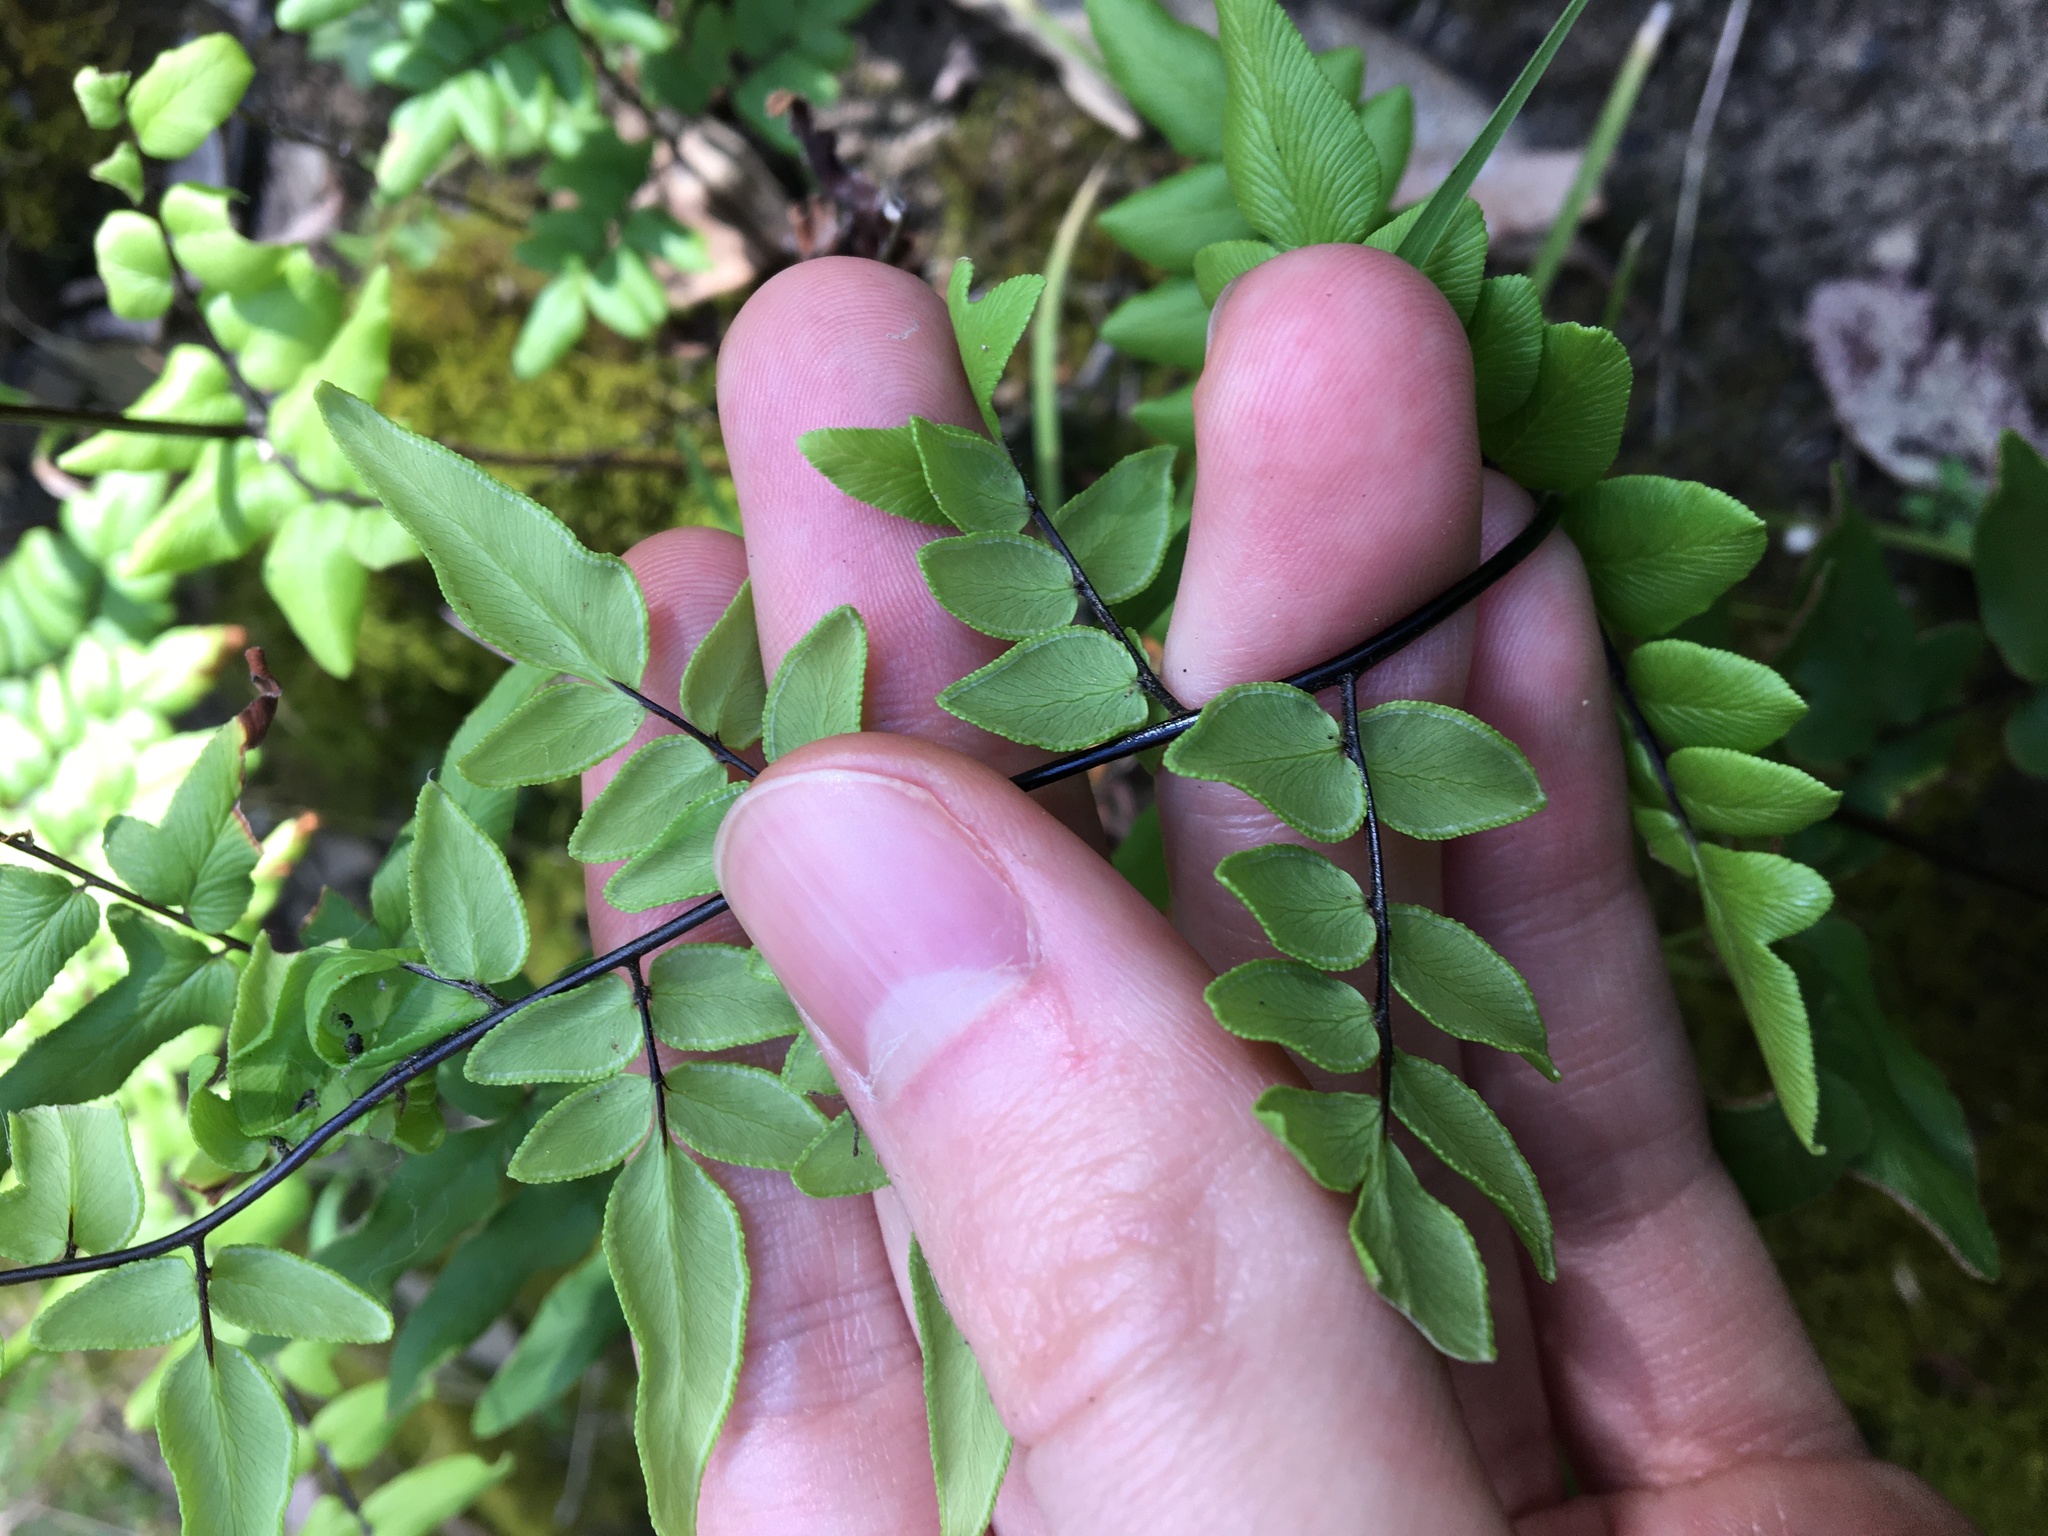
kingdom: Plantae
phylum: Tracheophyta
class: Polypodiopsida
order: Polypodiales
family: Pteridaceae
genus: Cheilanthes
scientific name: Cheilanthes viridis
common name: Green cliffbrake
